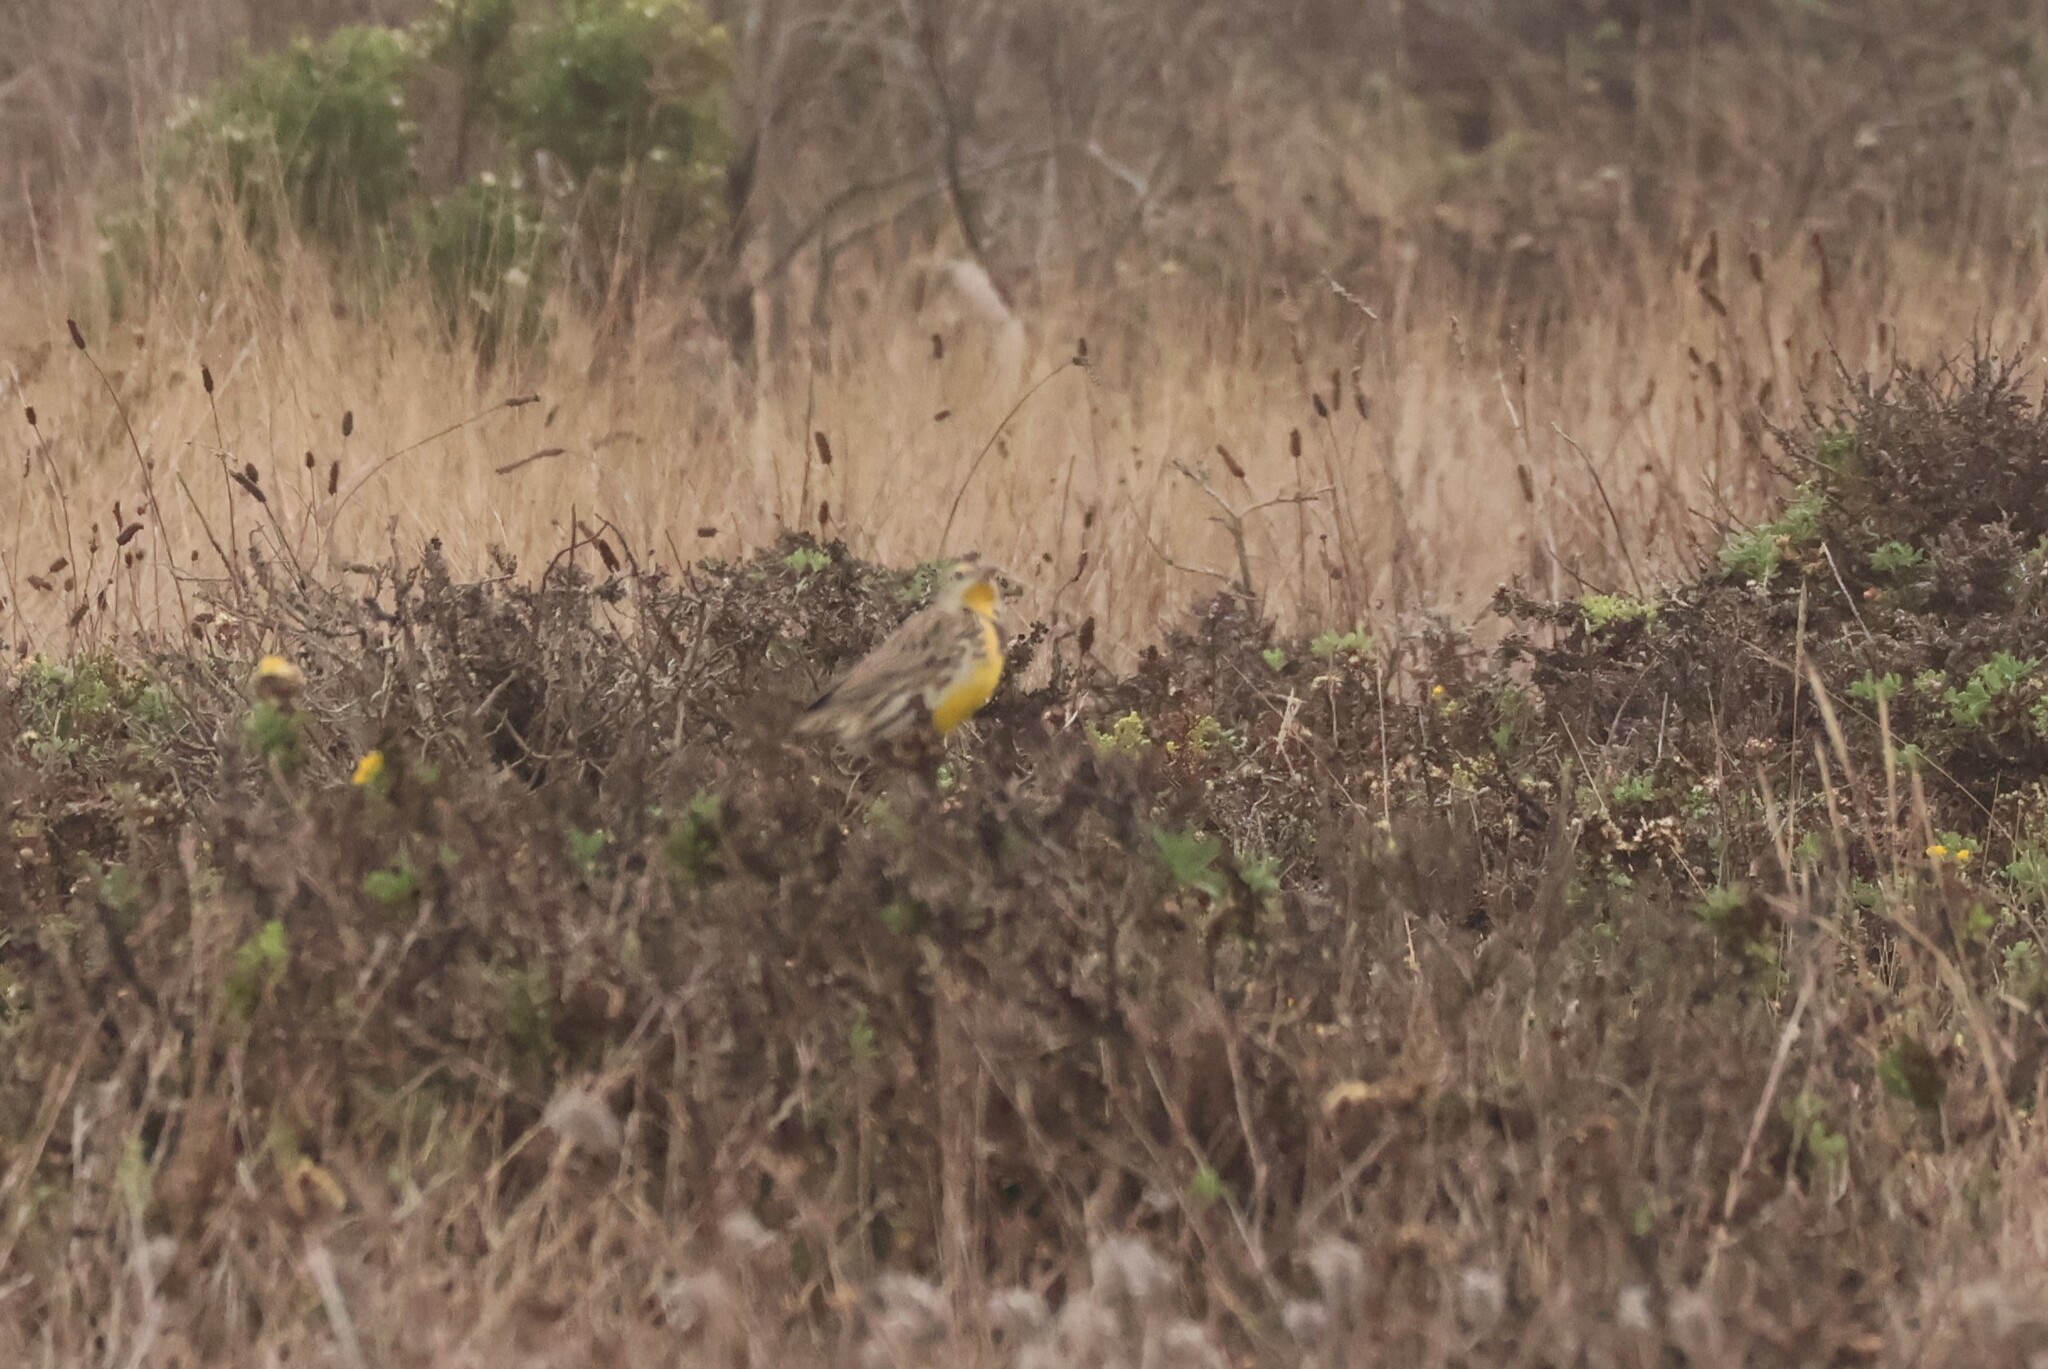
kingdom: Animalia
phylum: Chordata
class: Aves
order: Passeriformes
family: Icteridae
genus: Sturnella
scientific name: Sturnella neglecta
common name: Western meadowlark
